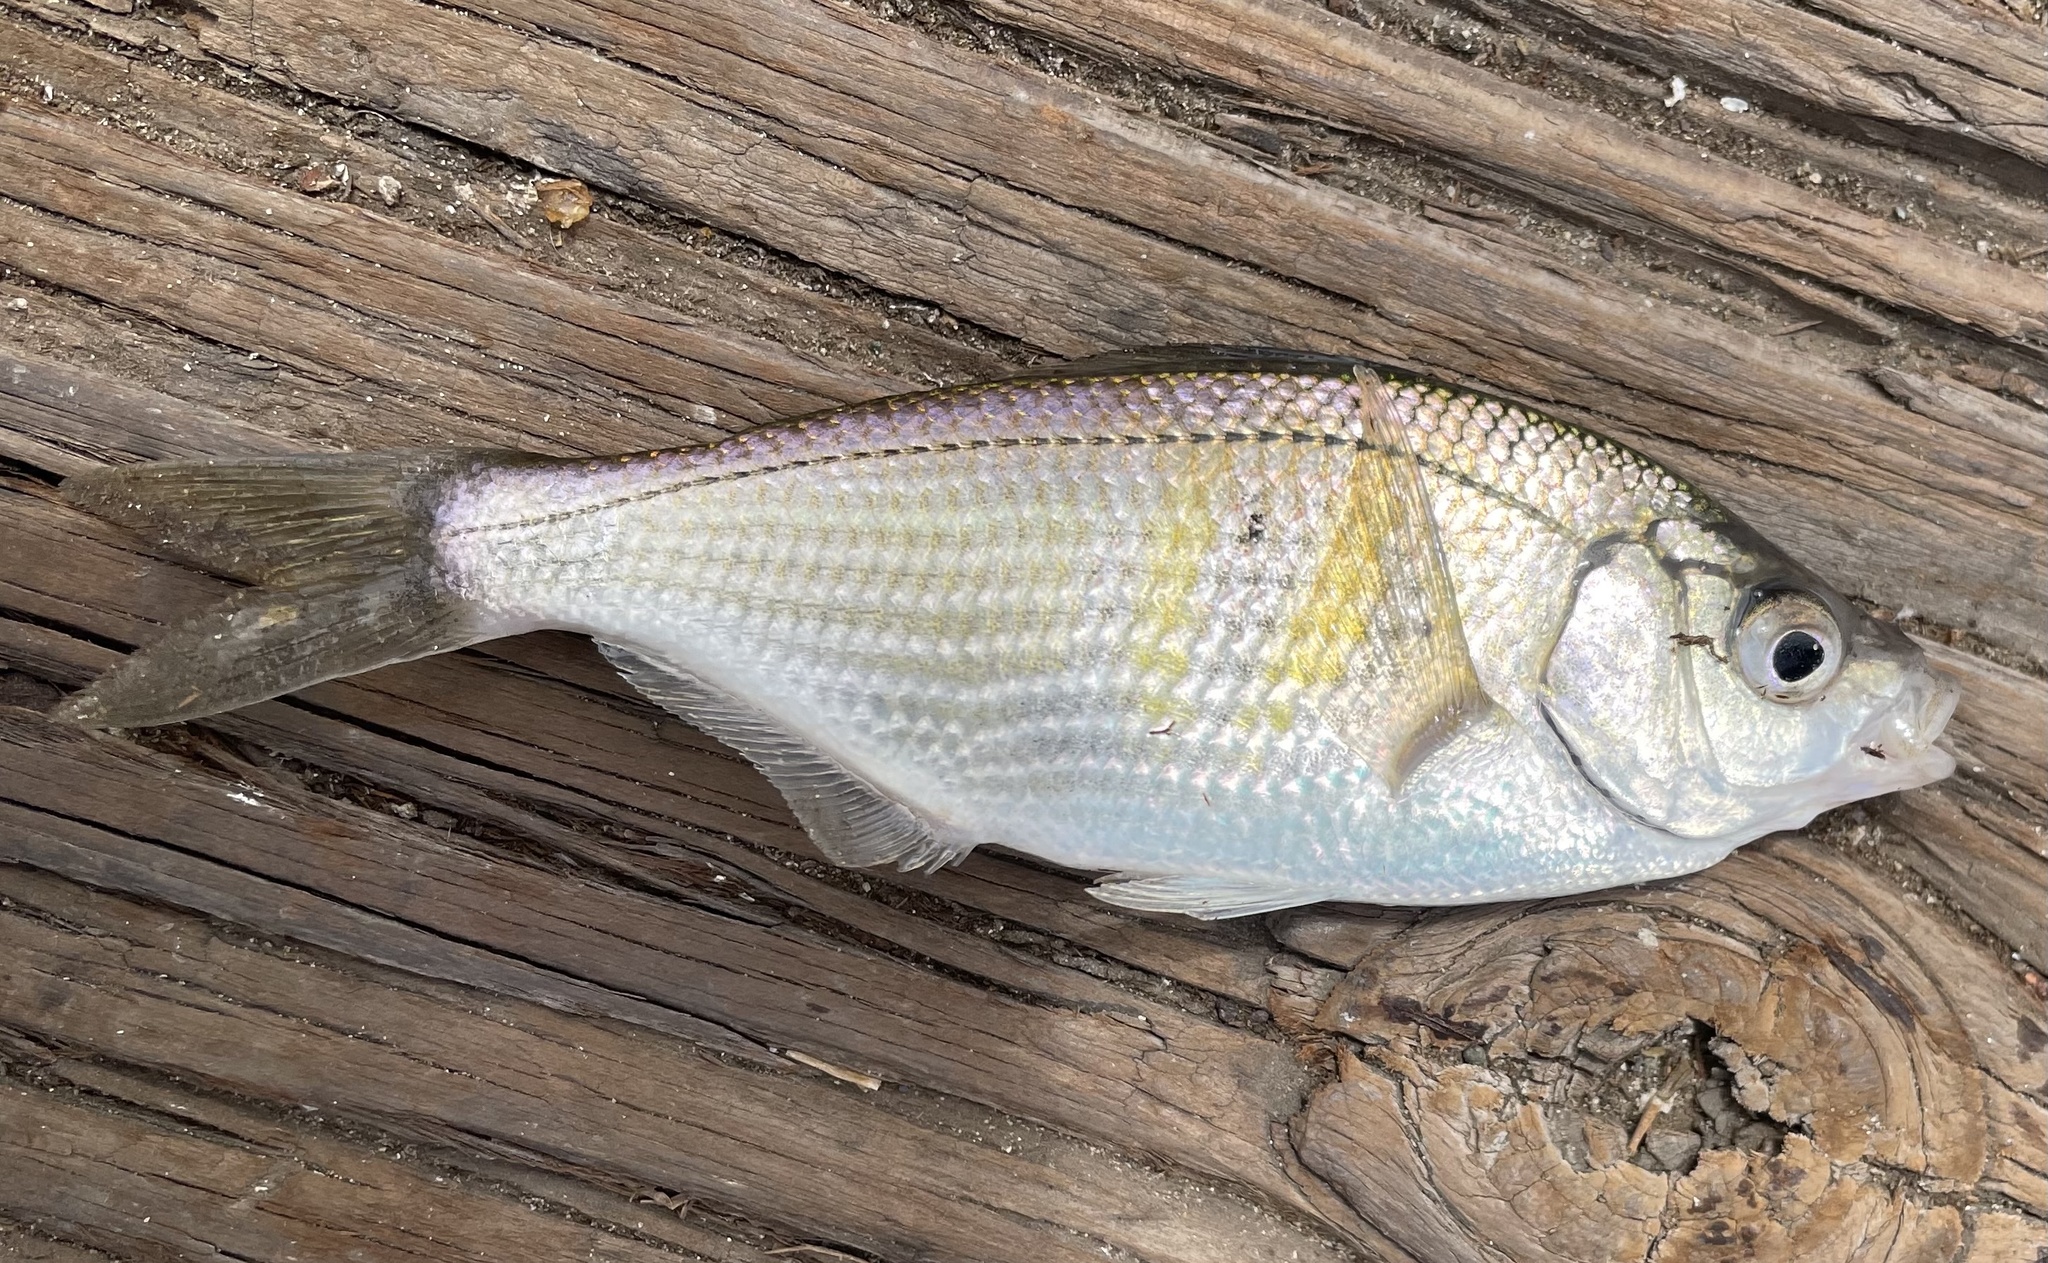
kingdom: Animalia
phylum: Chordata
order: Perciformes
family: Embiotocidae
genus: Cymatogaster
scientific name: Cymatogaster aggregata
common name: Shiner perch
